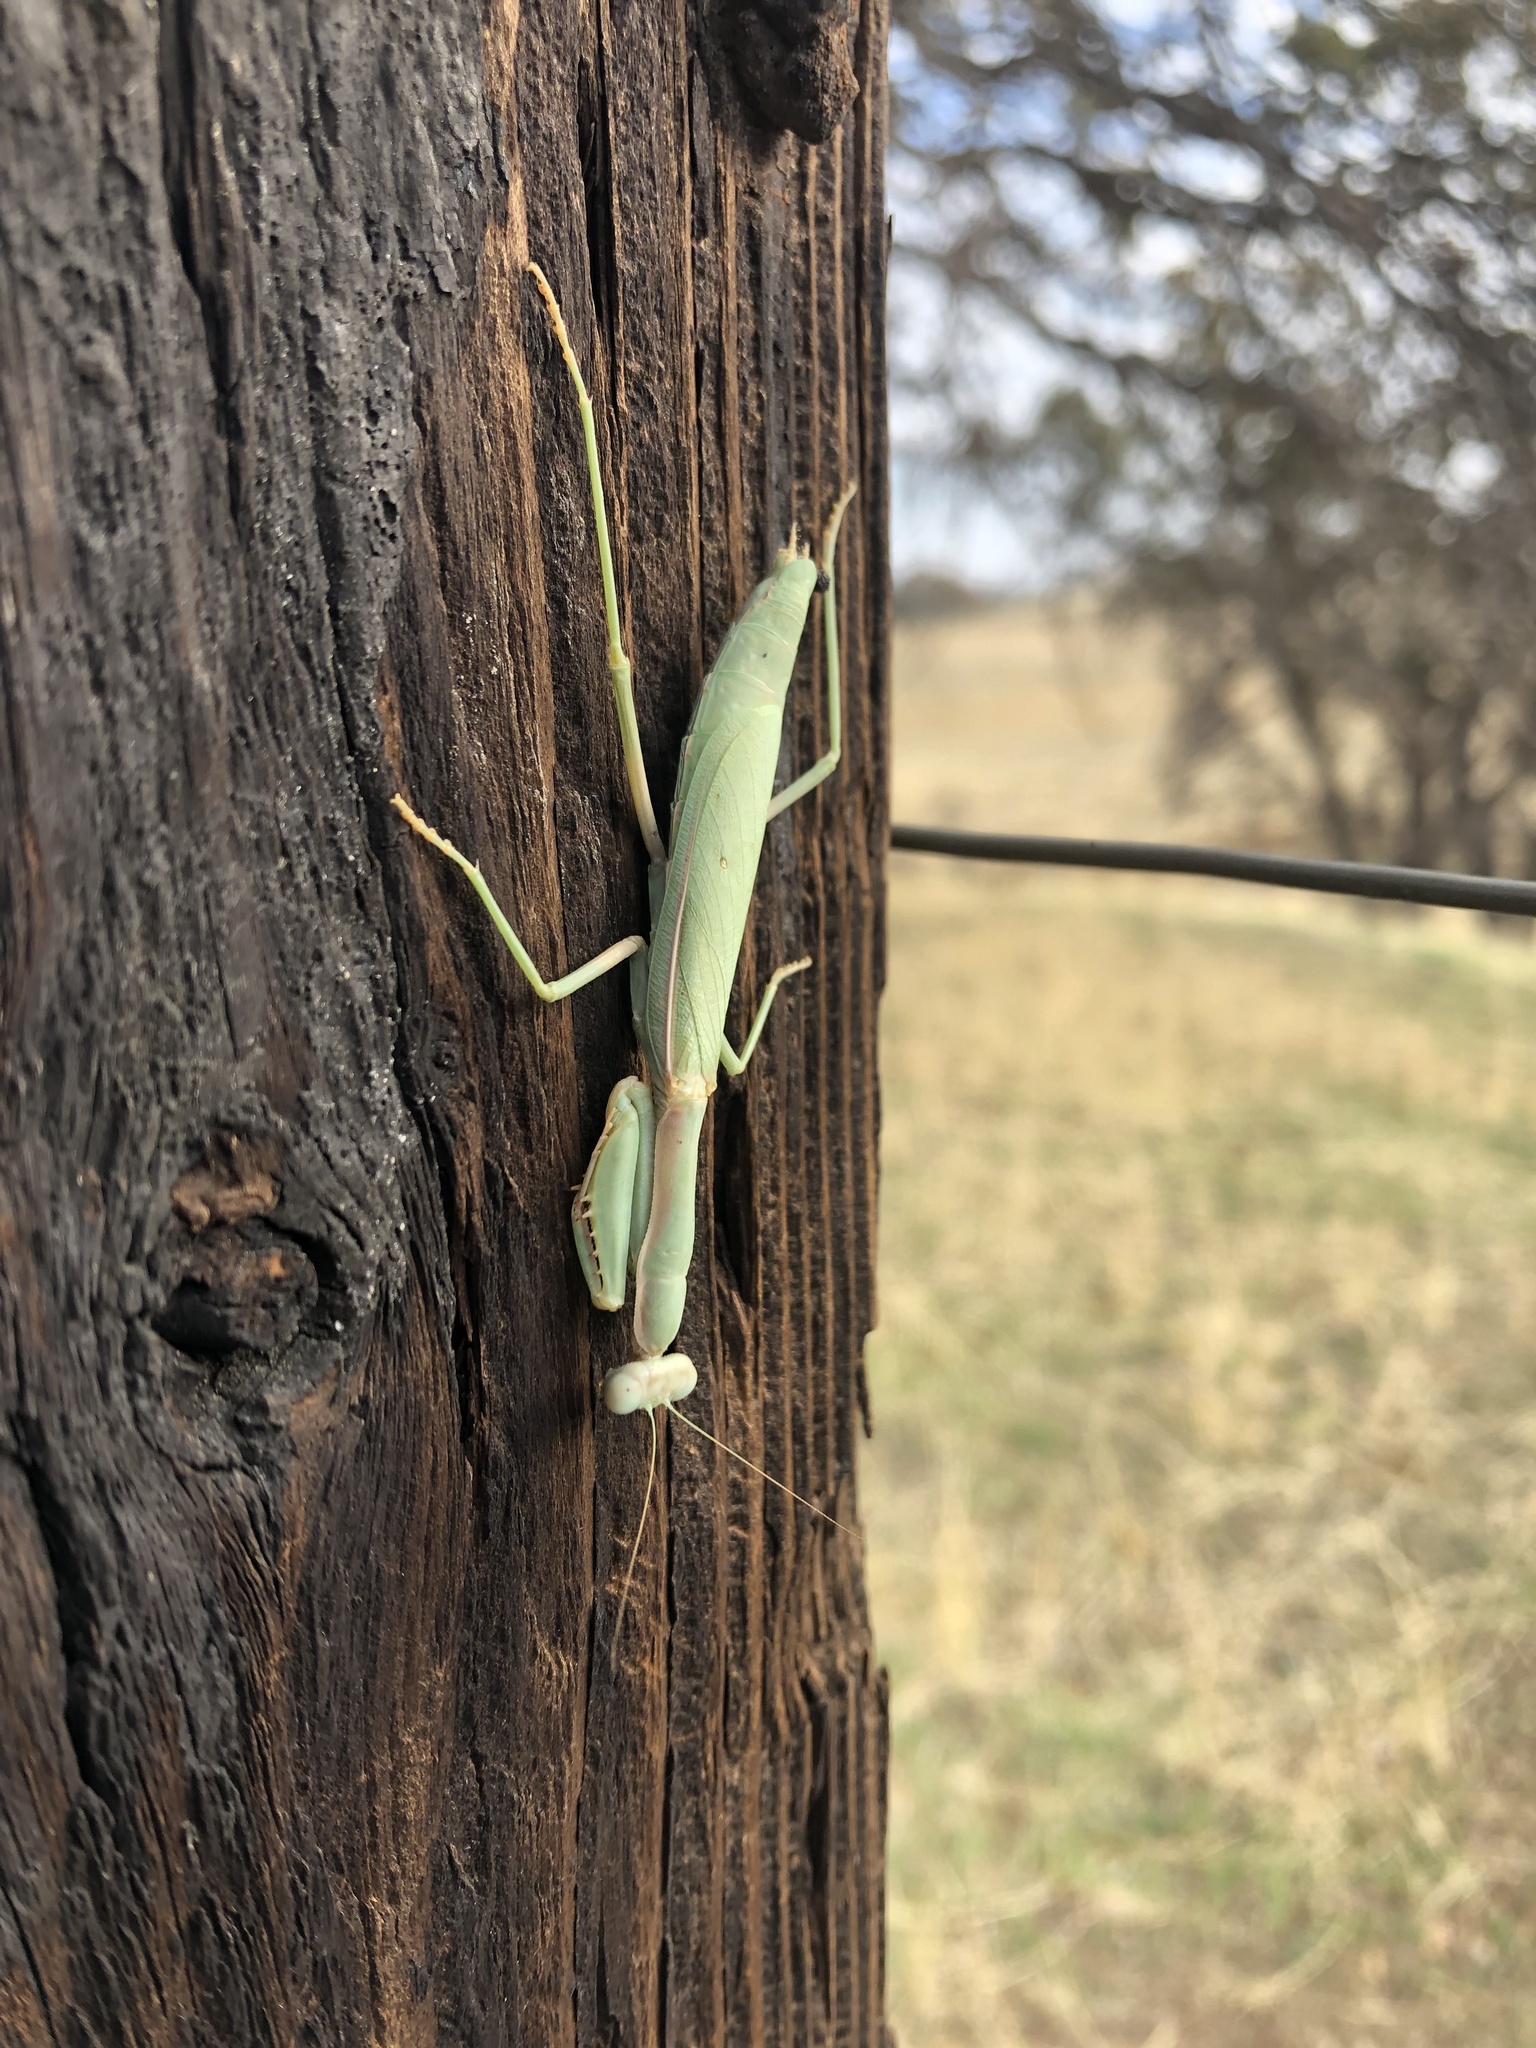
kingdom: Animalia
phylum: Arthropoda
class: Insecta
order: Mantodea
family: Eremiaphilidae
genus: Iris
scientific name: Iris oratoria
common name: Mediterranean mantis
